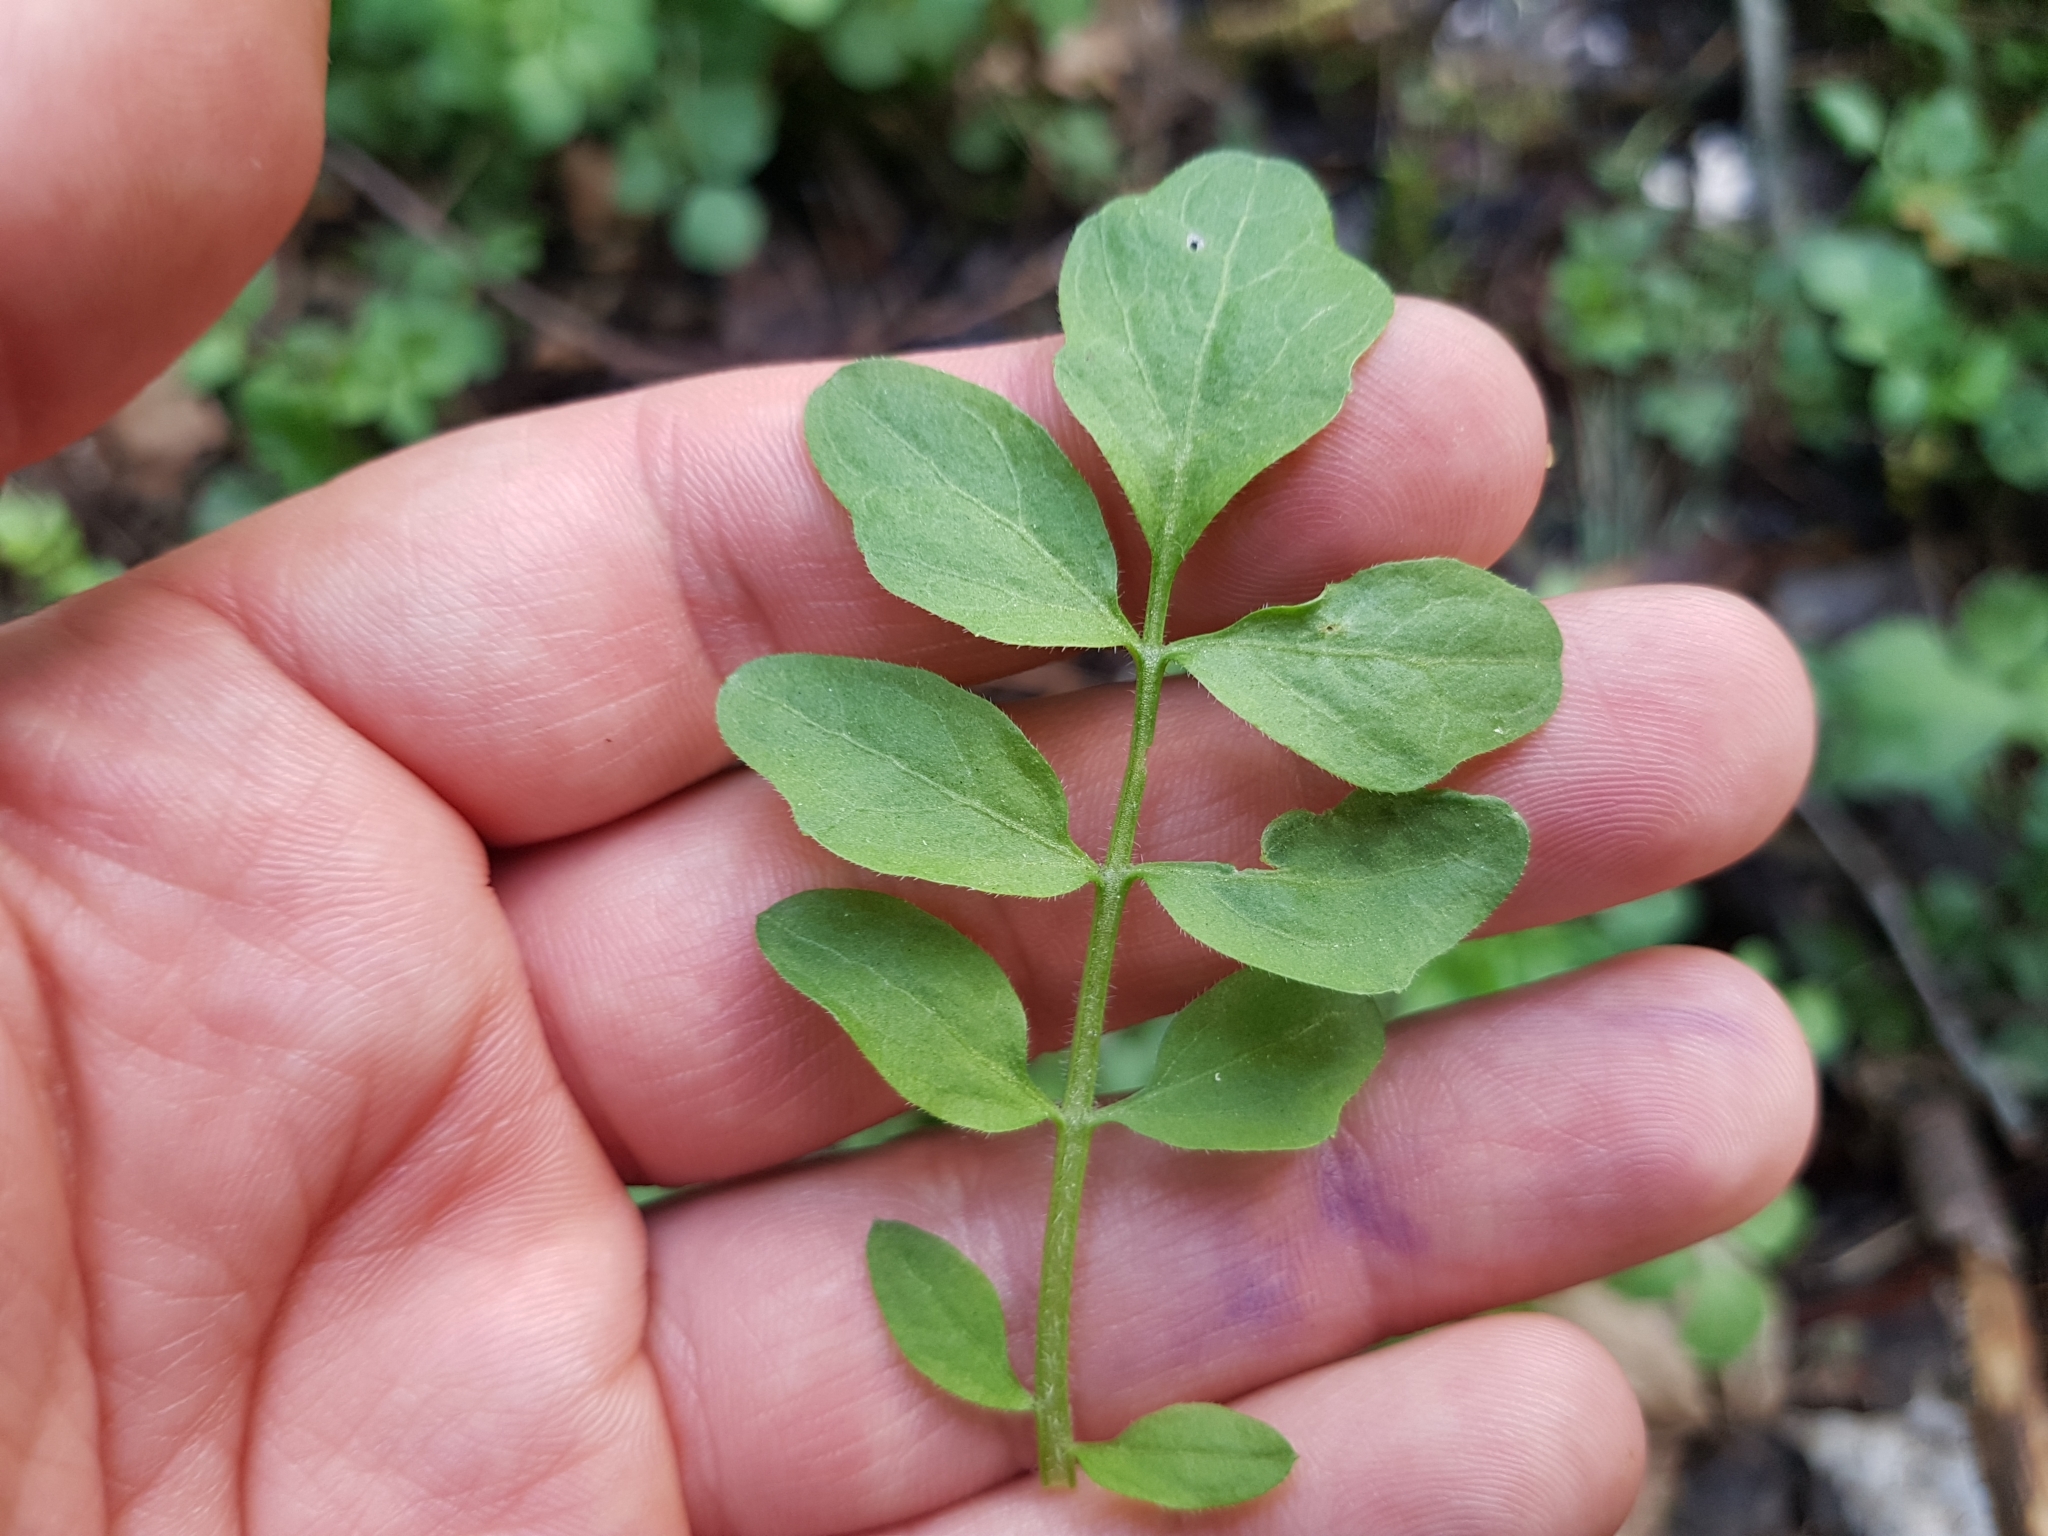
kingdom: Plantae
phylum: Tracheophyta
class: Magnoliopsida
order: Brassicales
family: Brassicaceae
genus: Cardamine
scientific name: Cardamine amara
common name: Large bitter-cress
